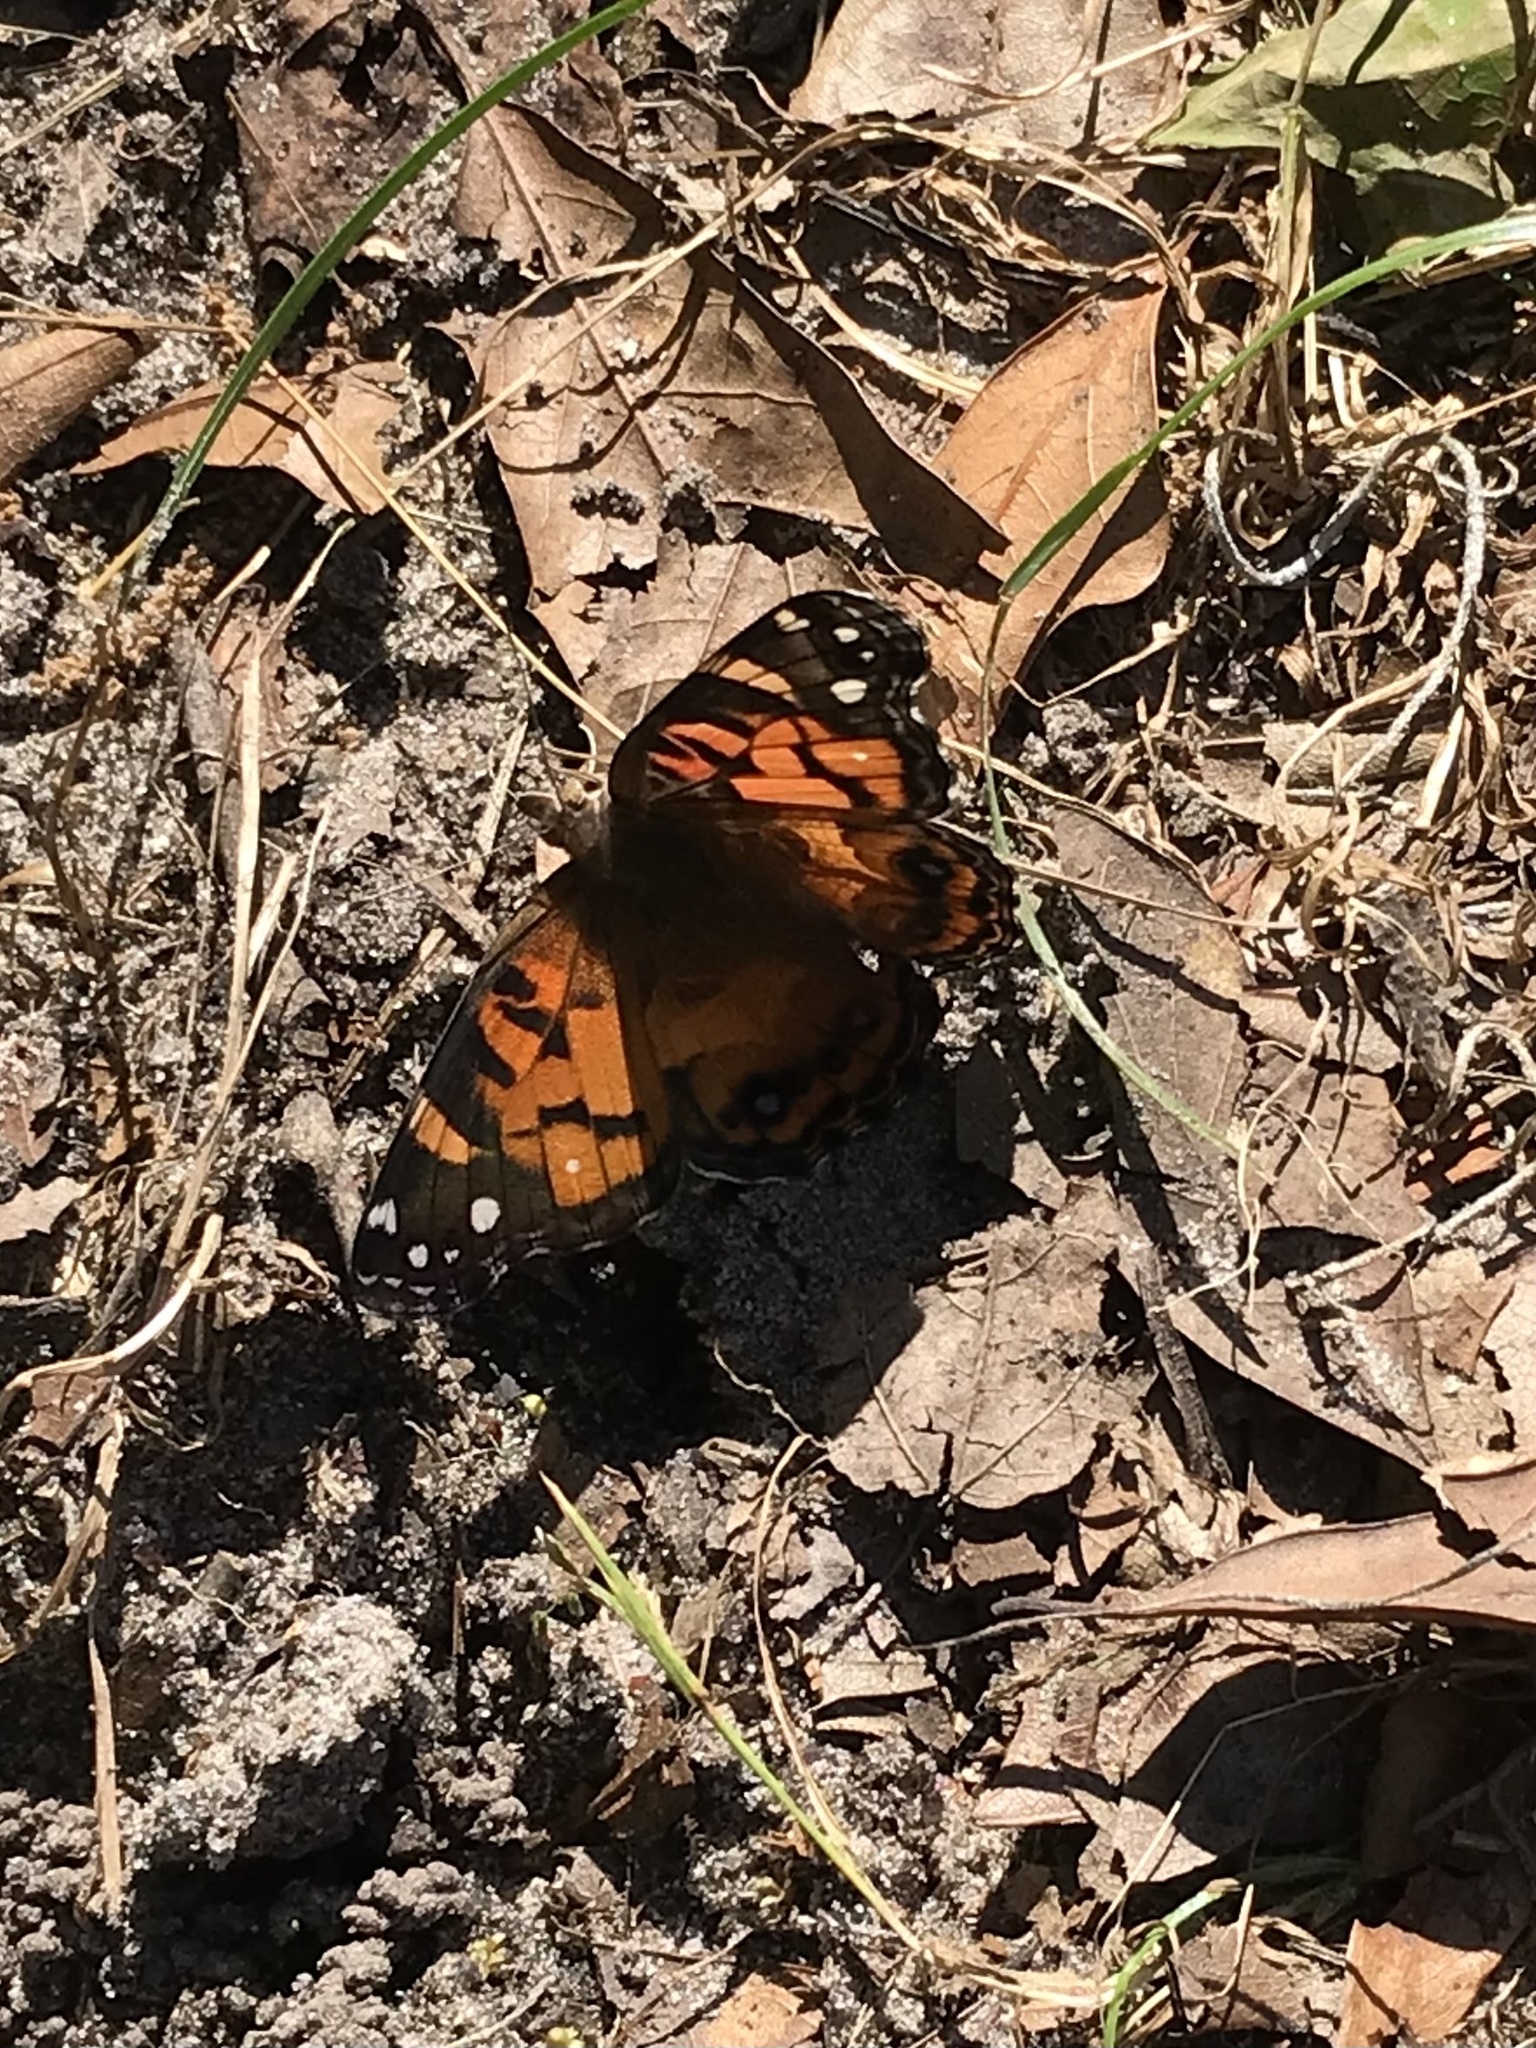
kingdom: Animalia
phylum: Arthropoda
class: Insecta
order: Lepidoptera
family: Nymphalidae
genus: Vanessa
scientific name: Vanessa virginiensis
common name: American lady
